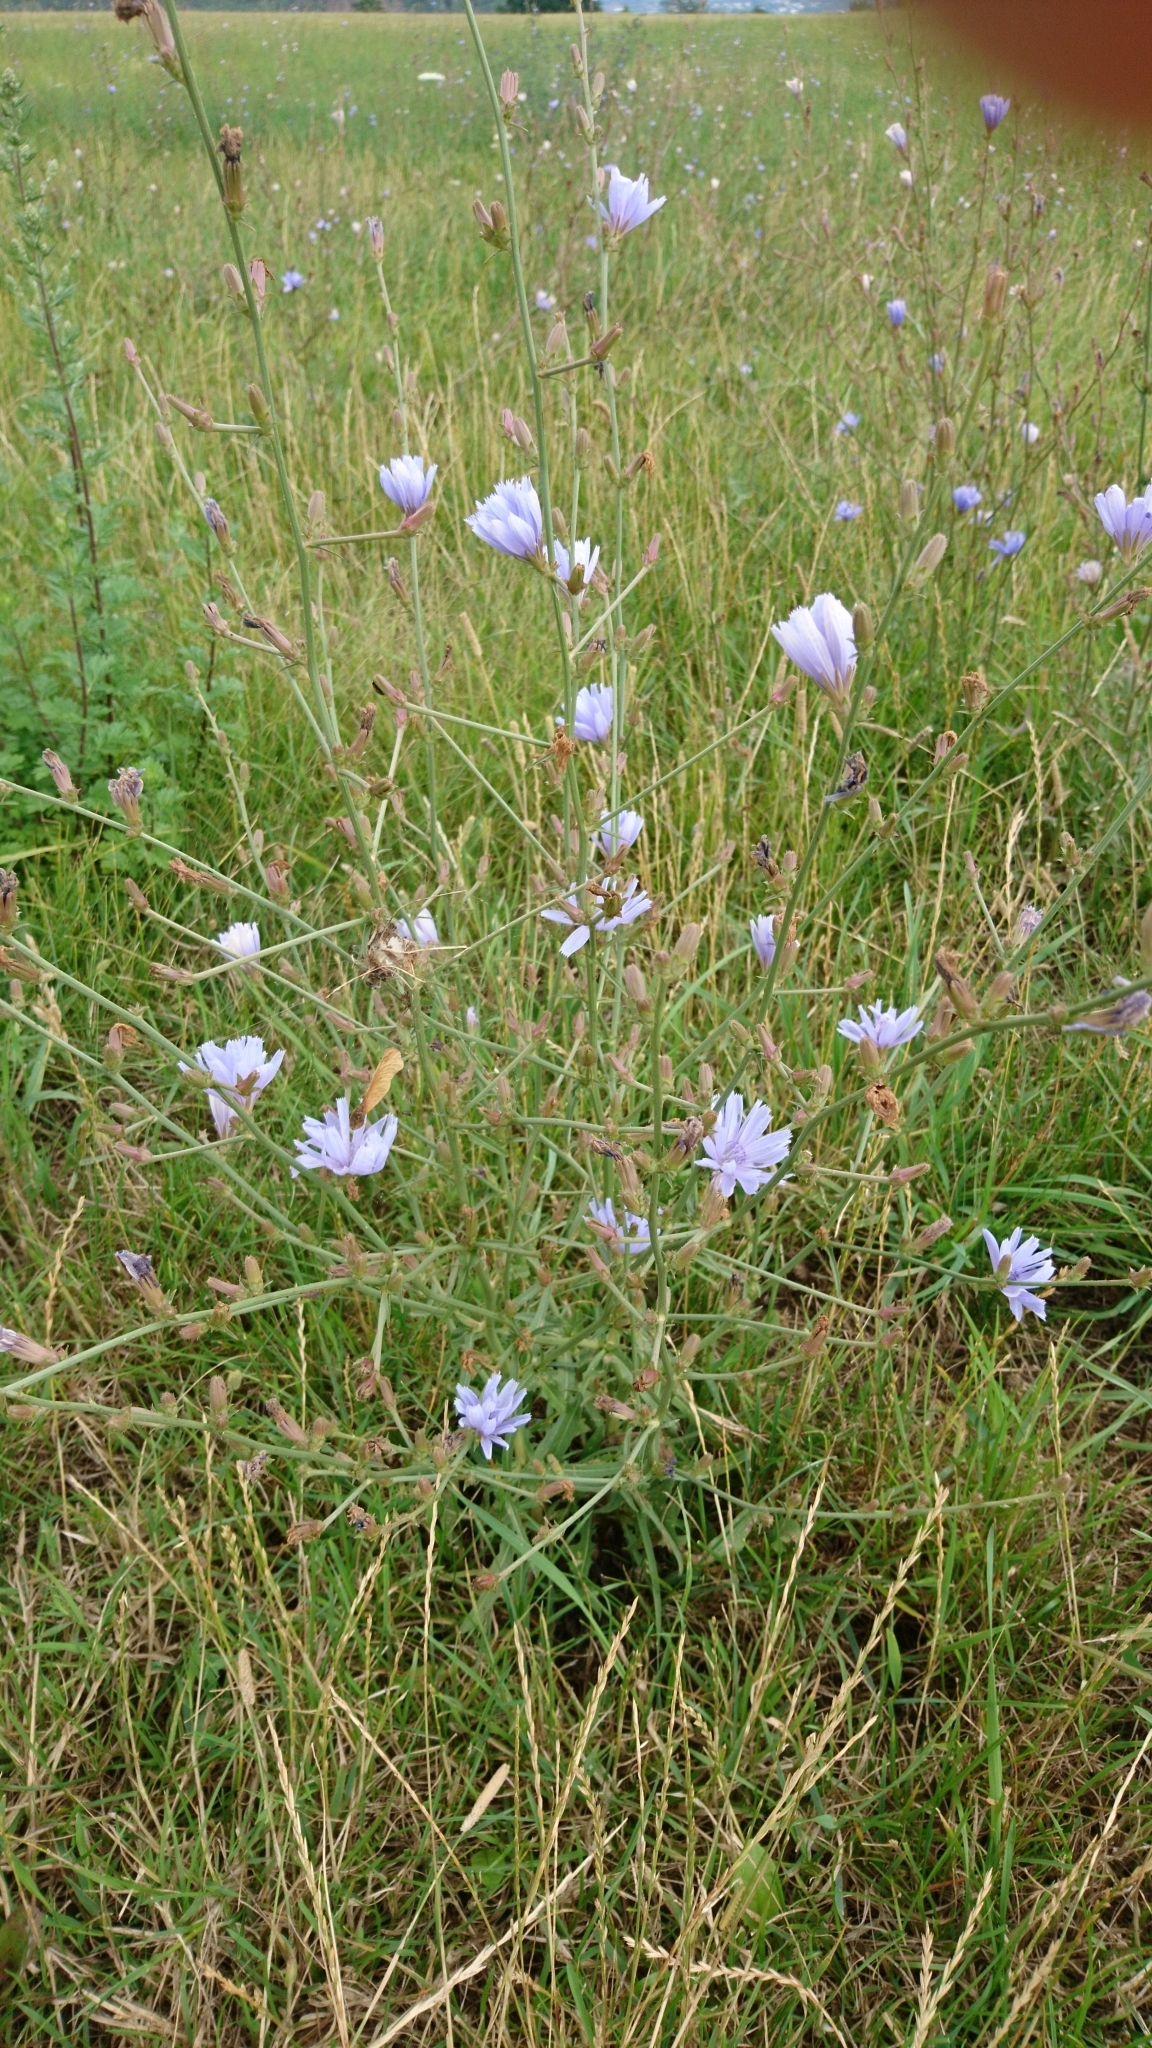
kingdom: Plantae
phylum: Tracheophyta
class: Magnoliopsida
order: Asterales
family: Asteraceae
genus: Cichorium
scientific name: Cichorium intybus
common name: Chicory
